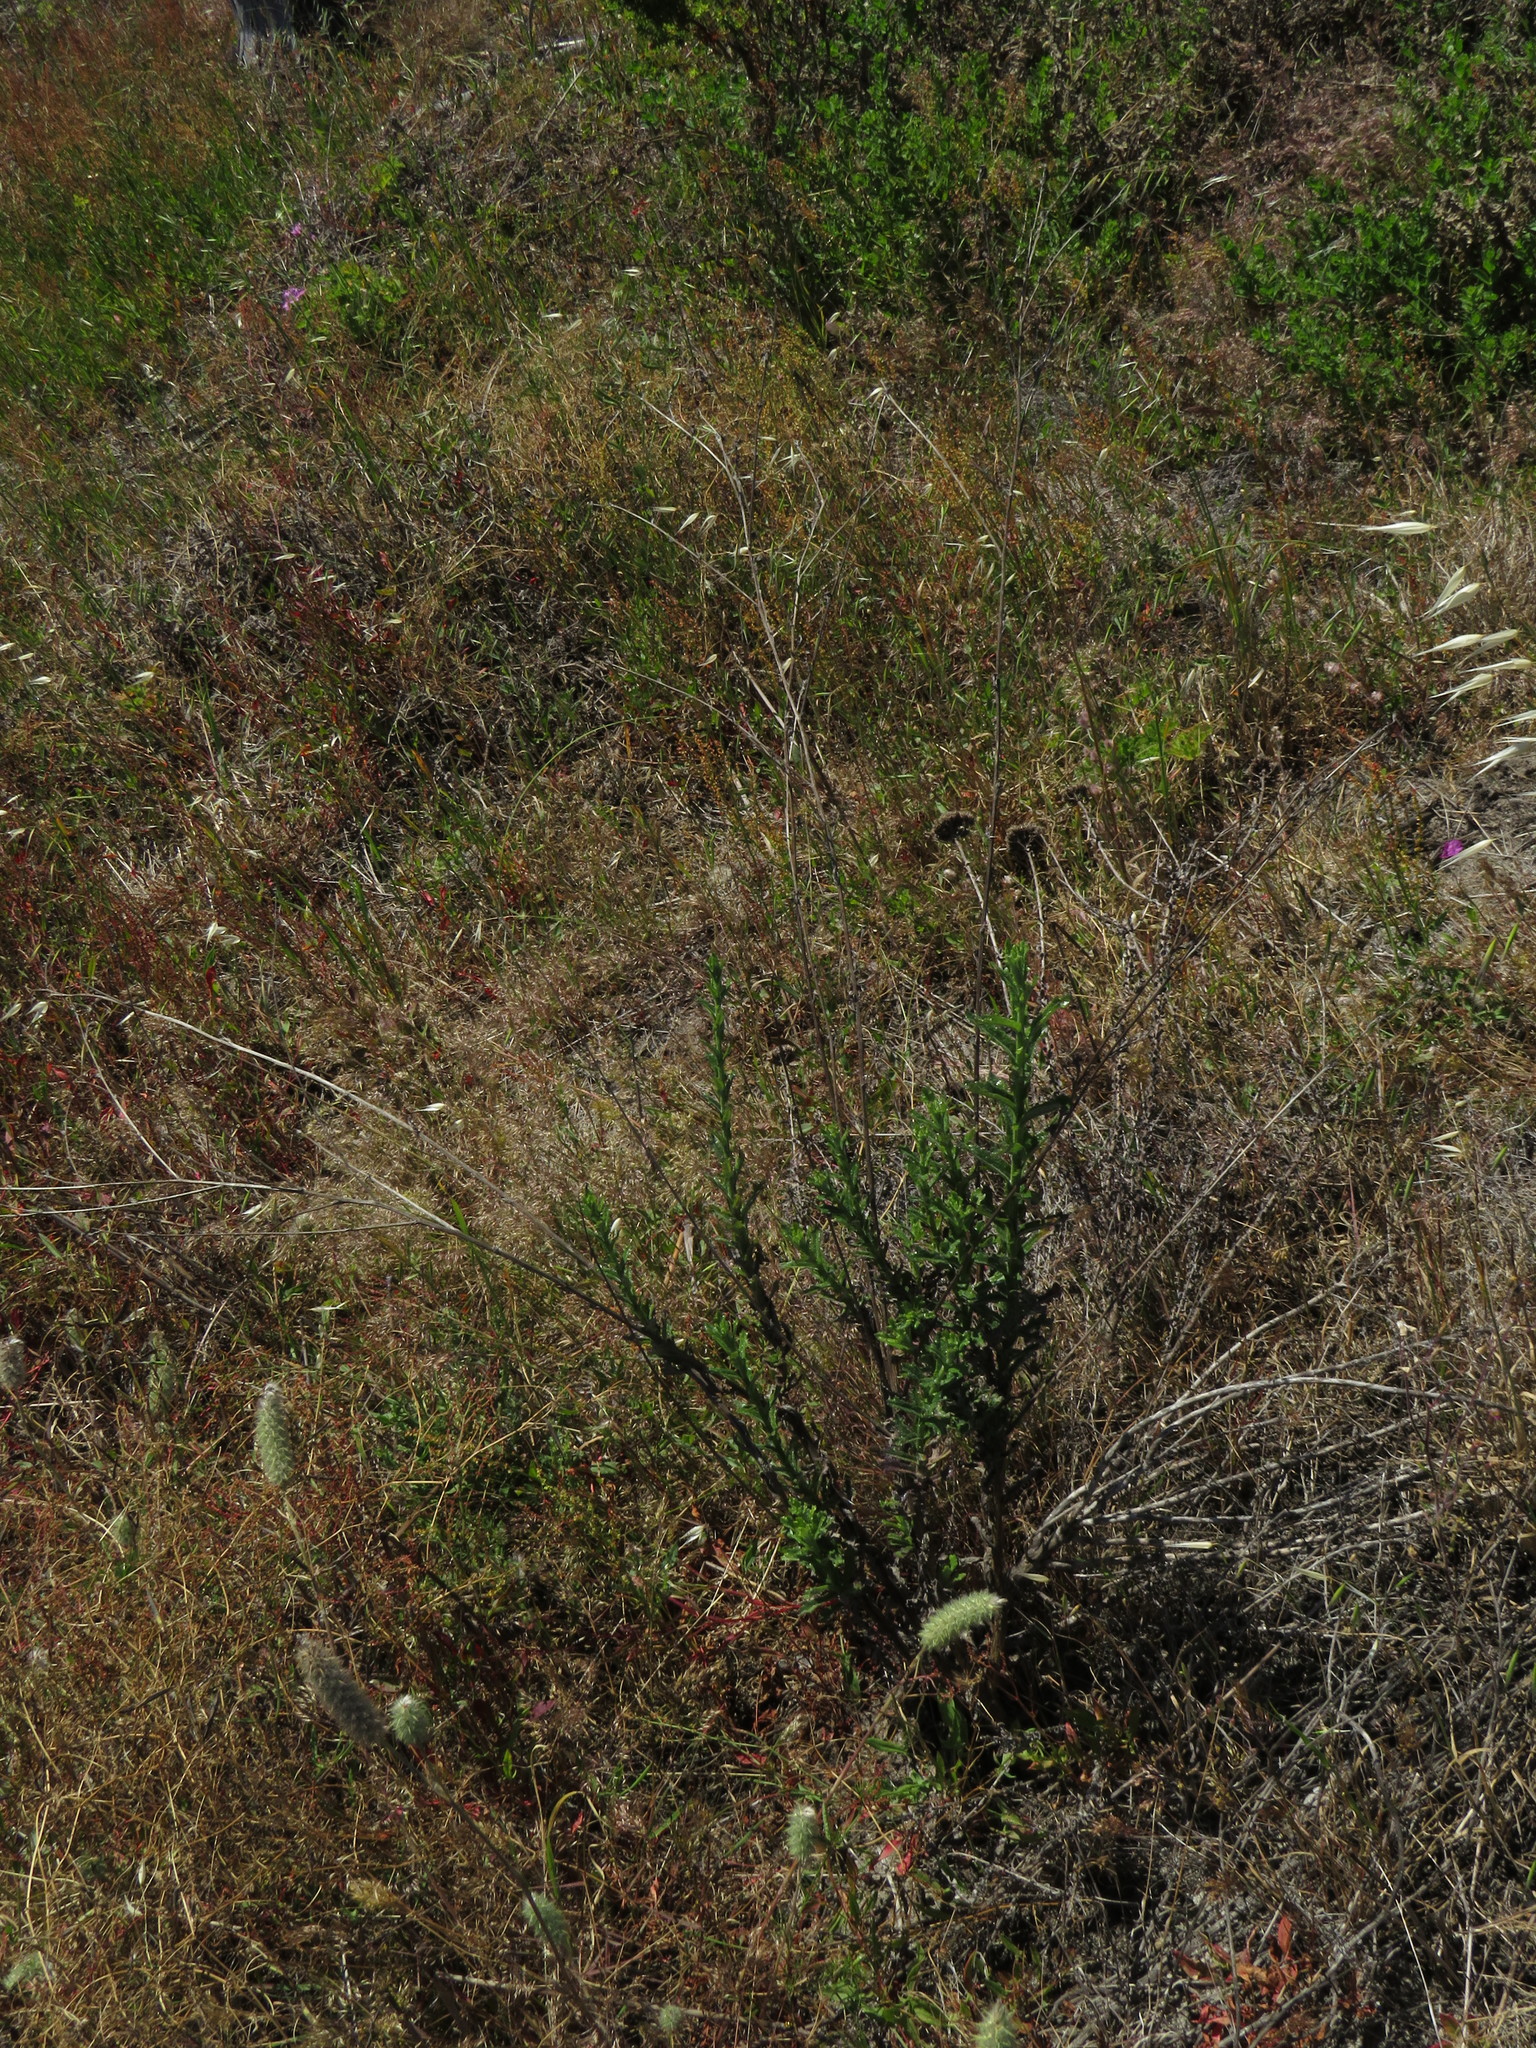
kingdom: Plantae
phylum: Tracheophyta
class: Magnoliopsida
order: Asterales
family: Asteraceae
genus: Senecio
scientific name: Senecio pubigerus
